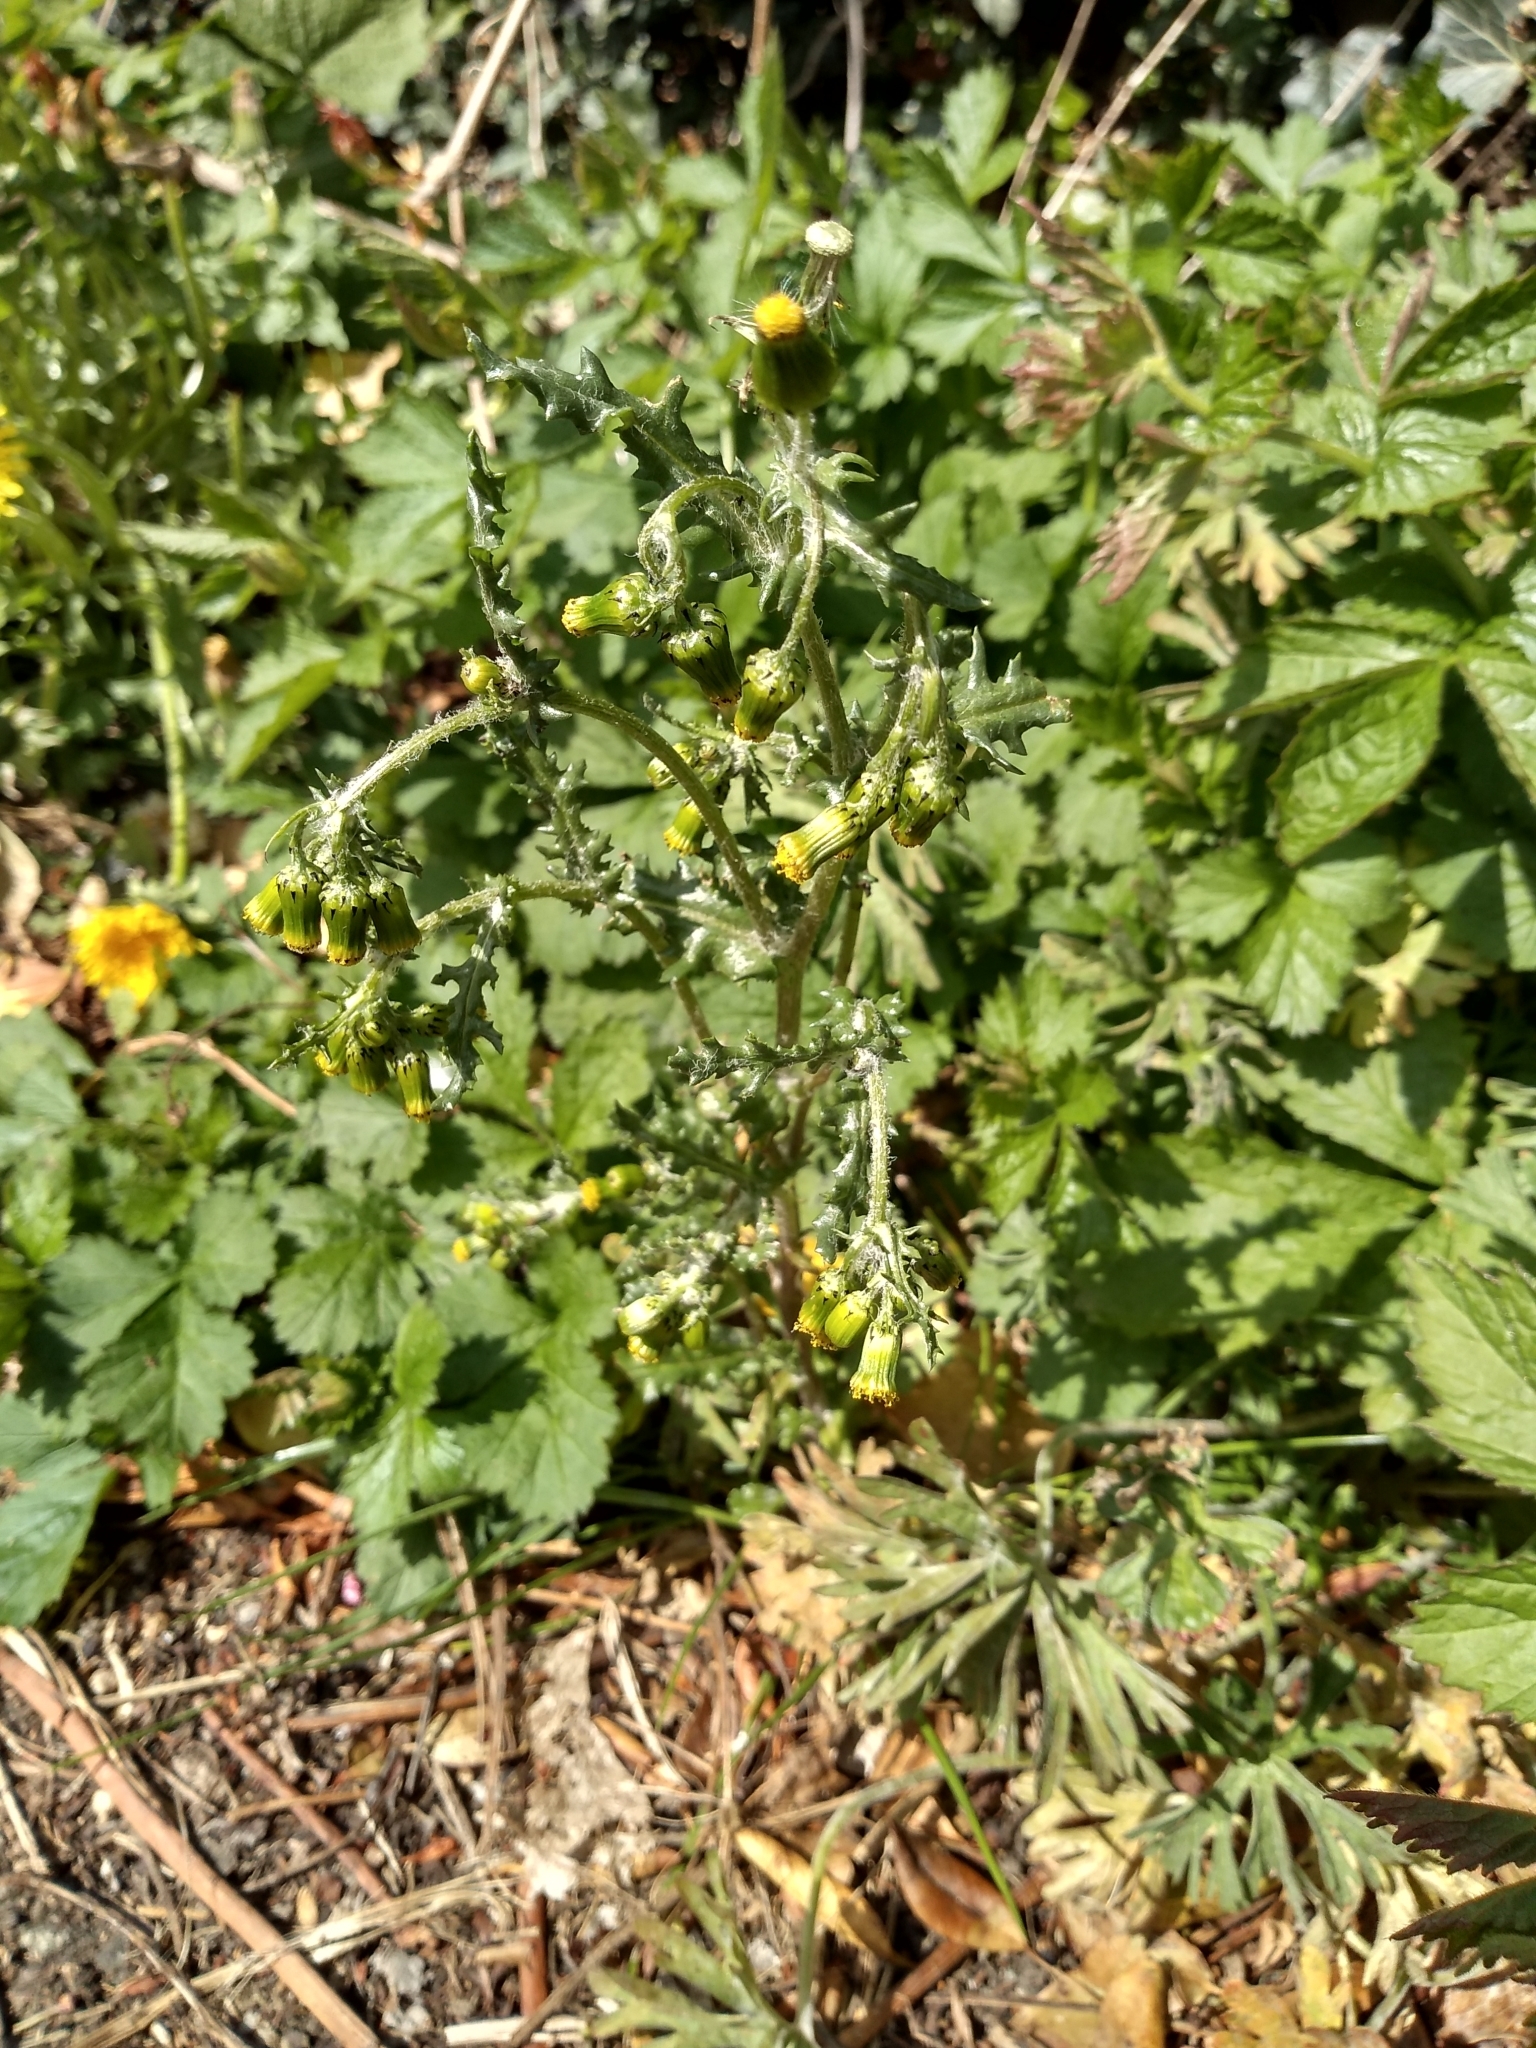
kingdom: Plantae
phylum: Tracheophyta
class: Magnoliopsida
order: Asterales
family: Asteraceae
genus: Senecio
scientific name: Senecio vulgaris
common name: Old-man-in-the-spring
